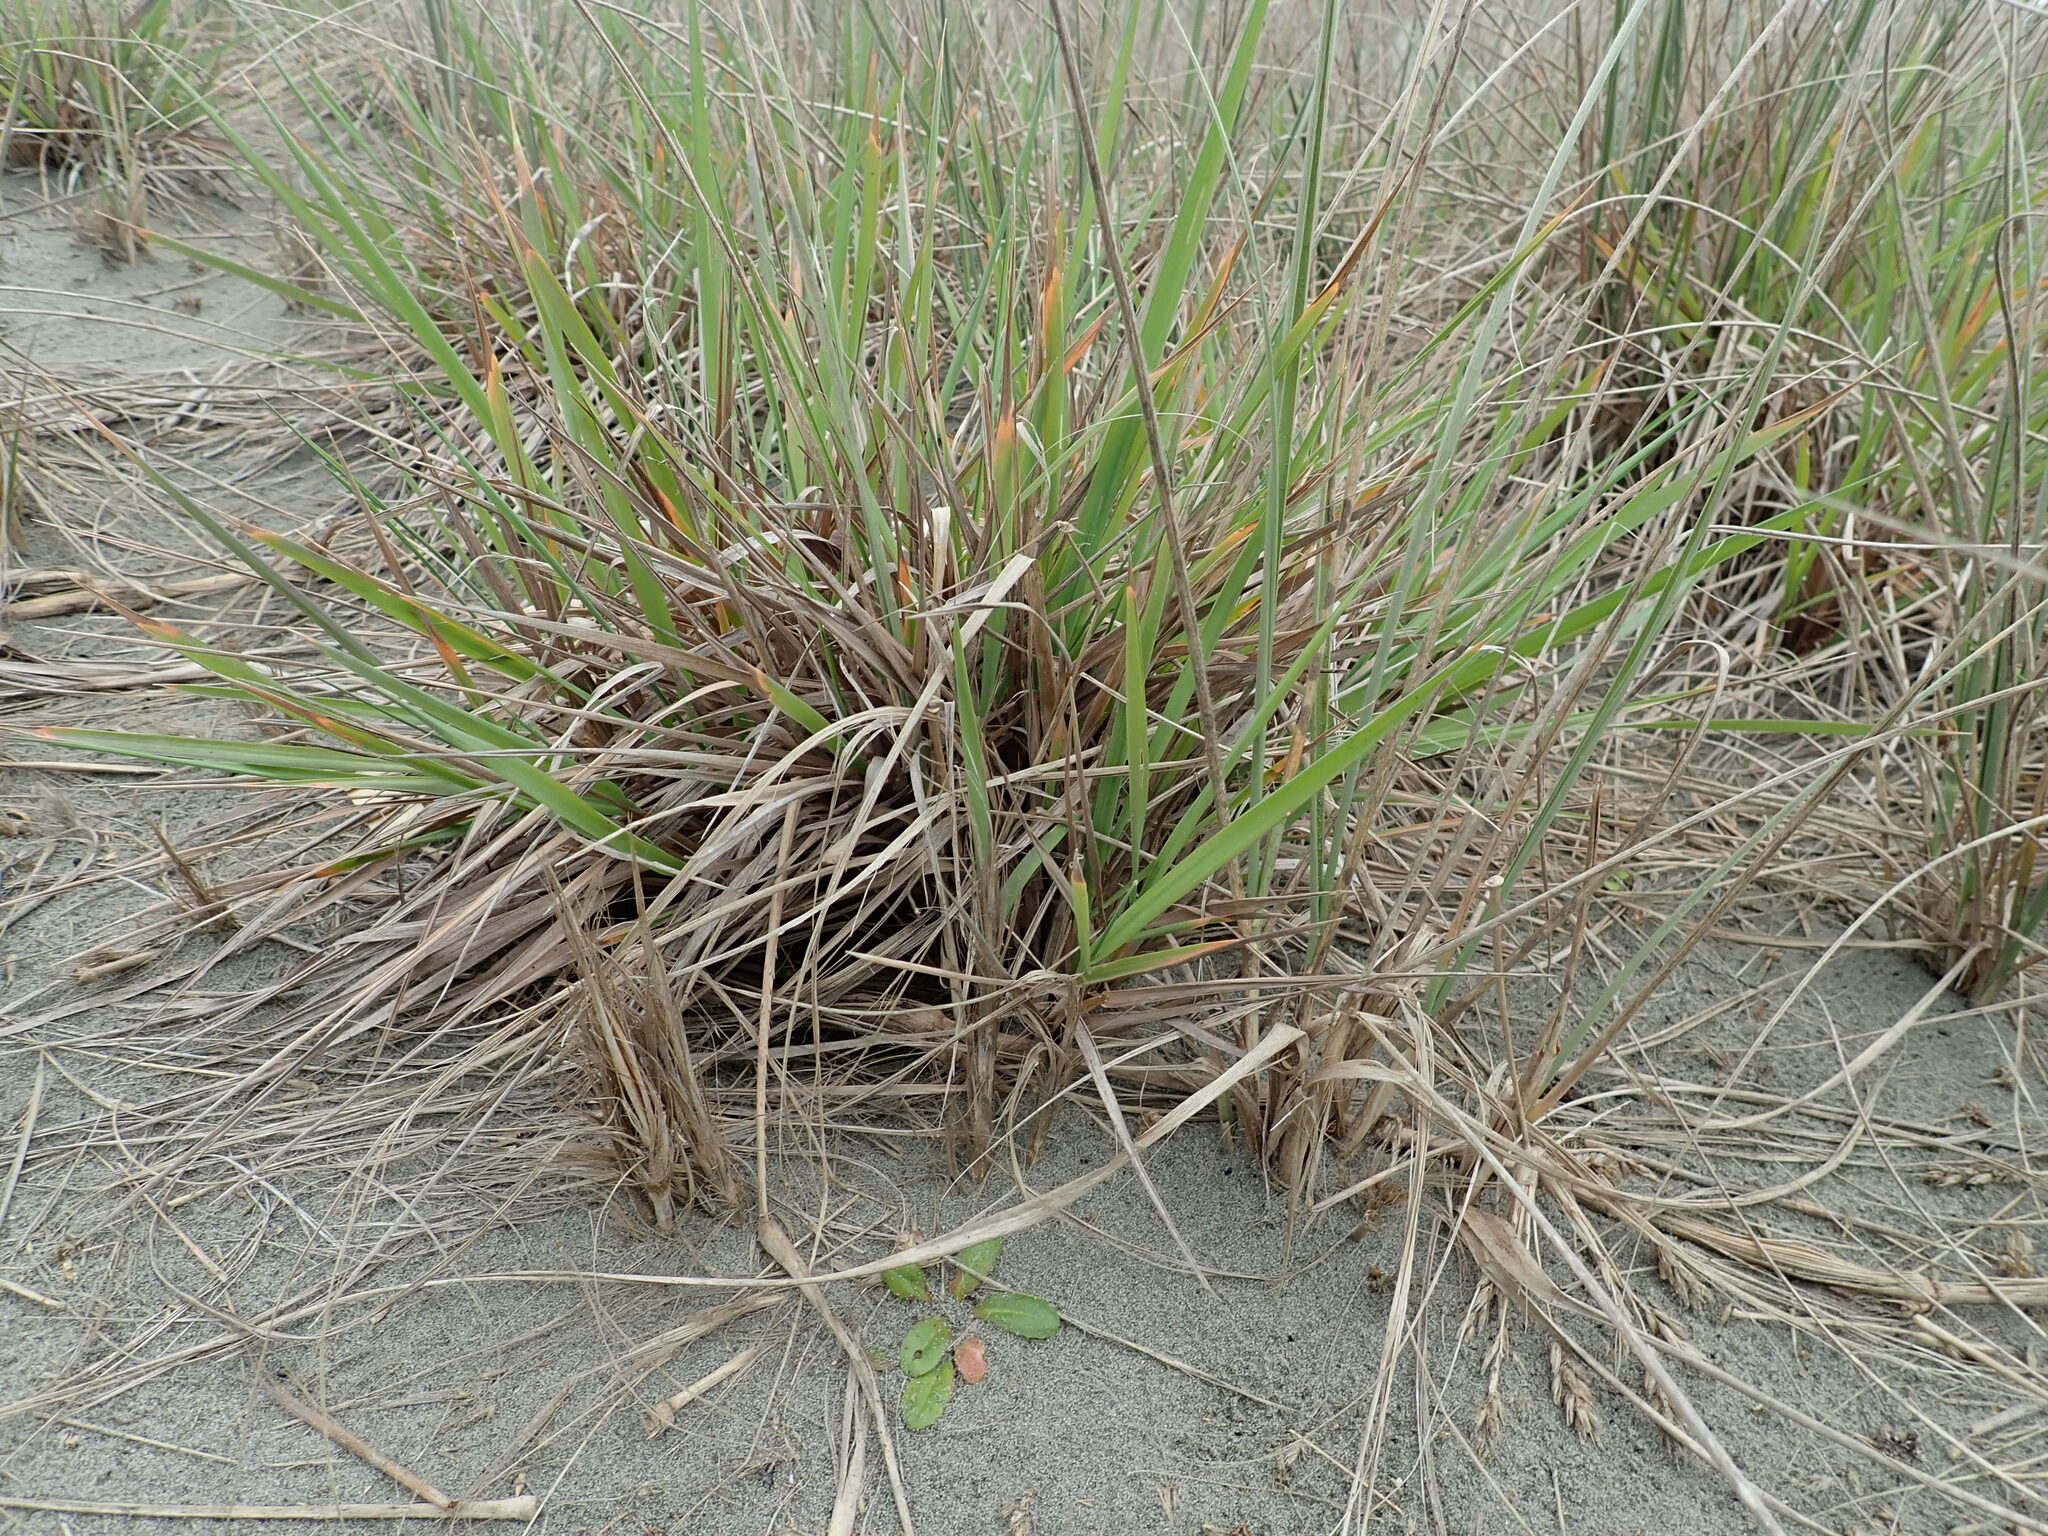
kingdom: Plantae
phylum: Tracheophyta
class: Liliopsida
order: Poales
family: Poaceae
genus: Lachnagrostis
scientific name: Lachnagrostis billardierei
